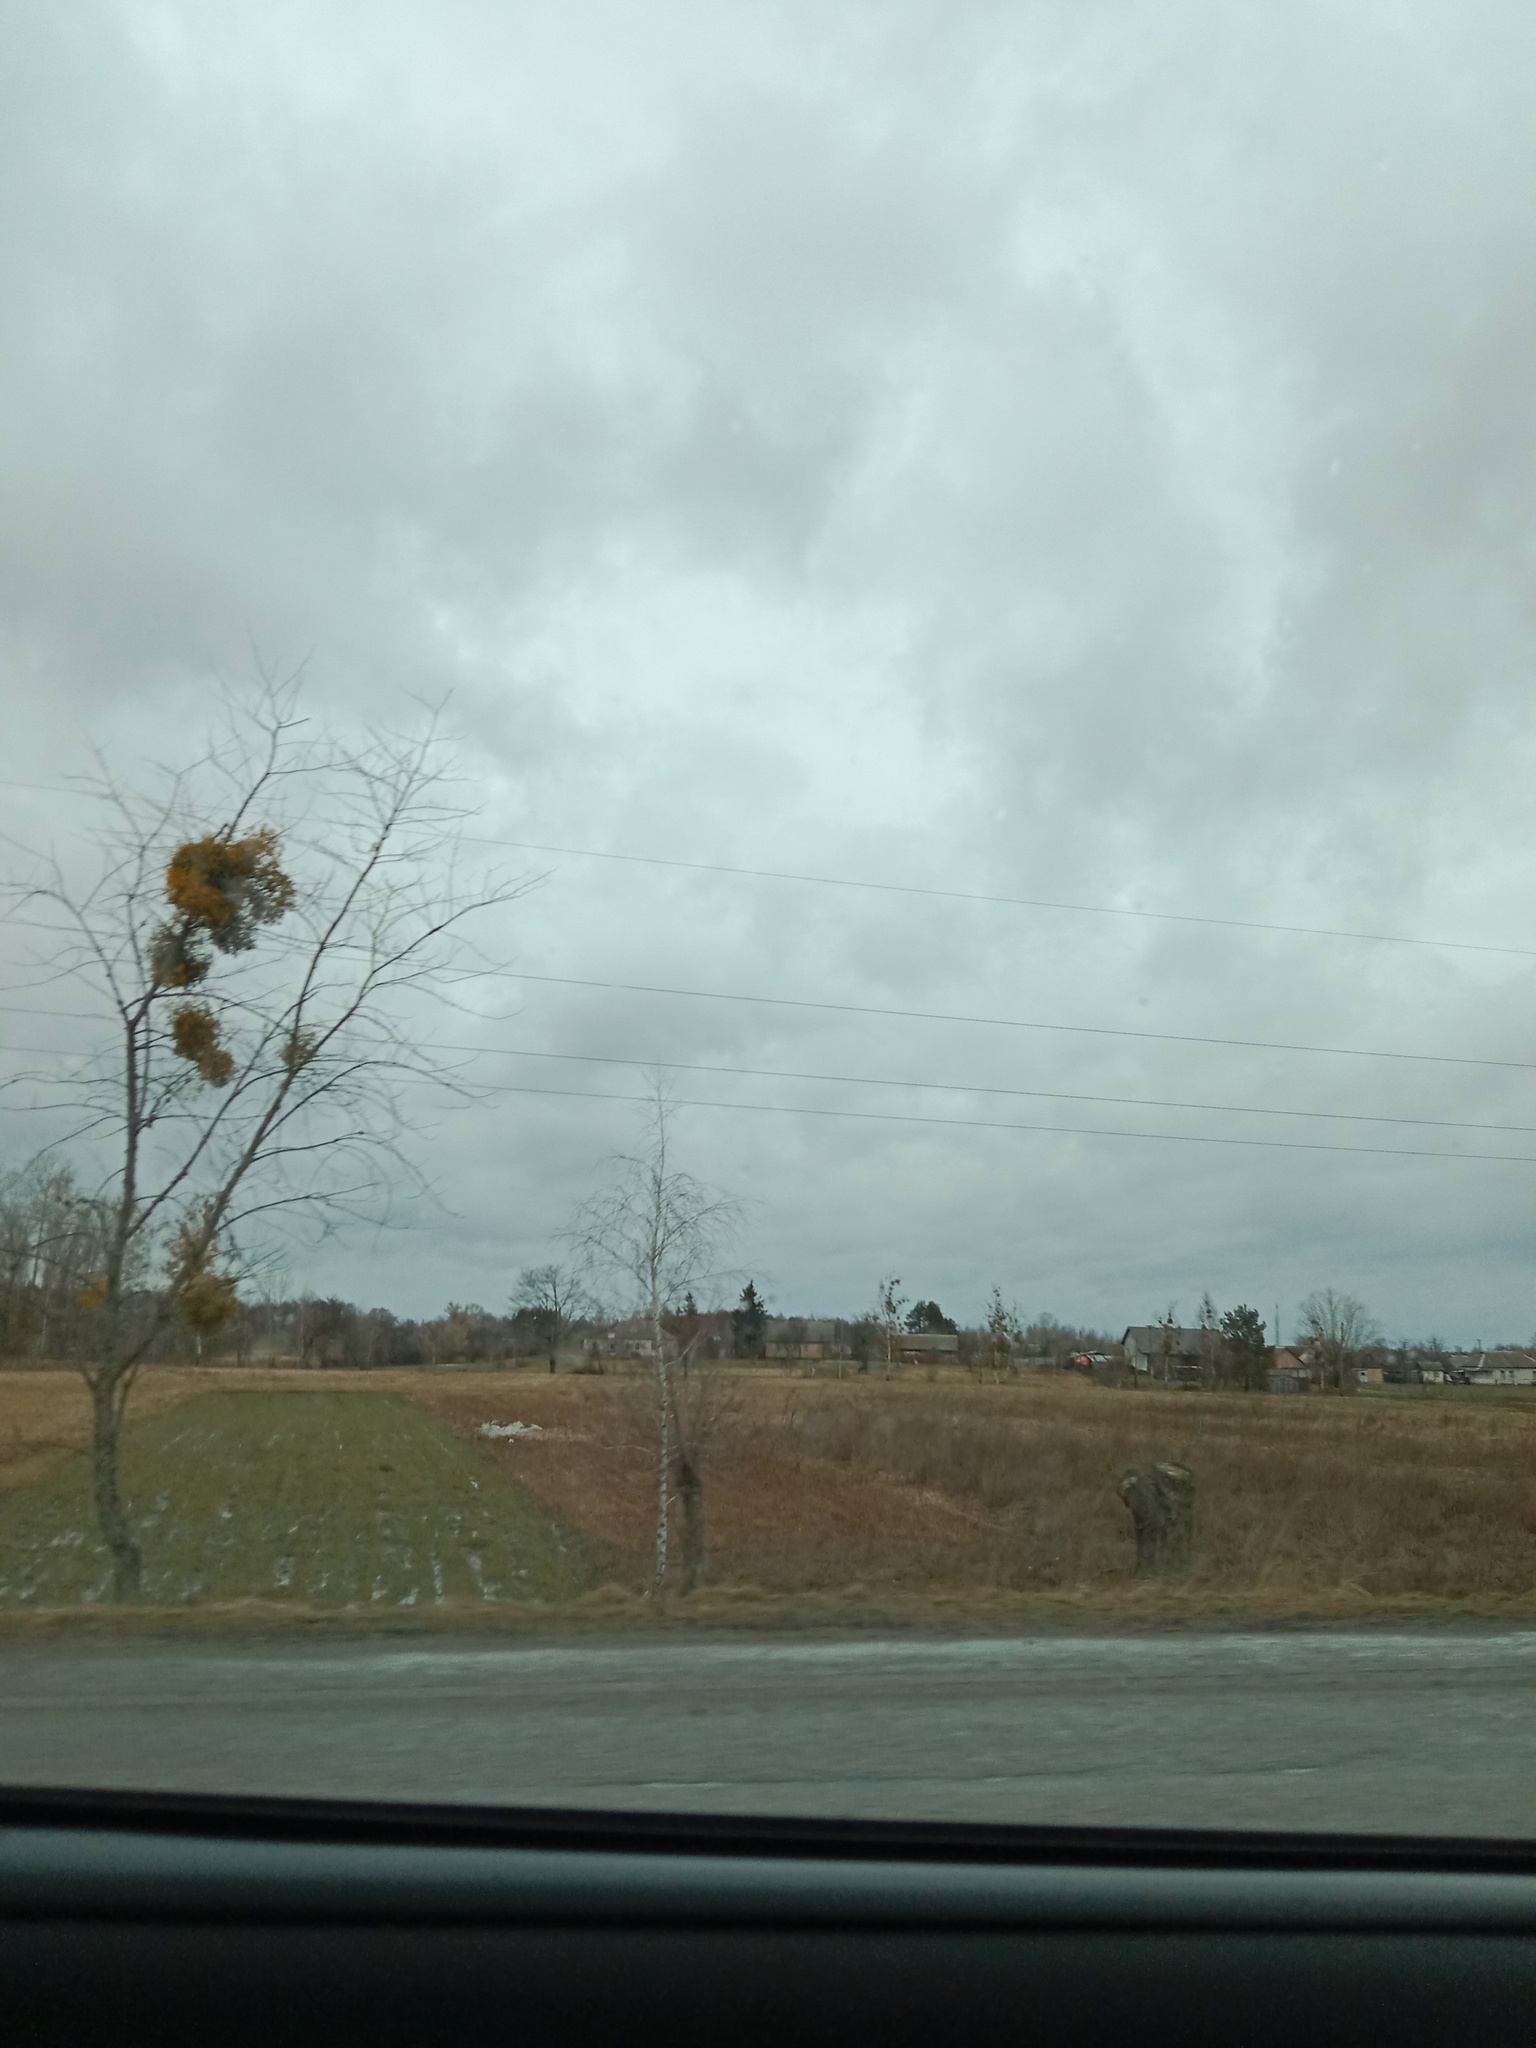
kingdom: Plantae
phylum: Tracheophyta
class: Magnoliopsida
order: Santalales
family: Viscaceae
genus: Viscum
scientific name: Viscum album
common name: Mistletoe
